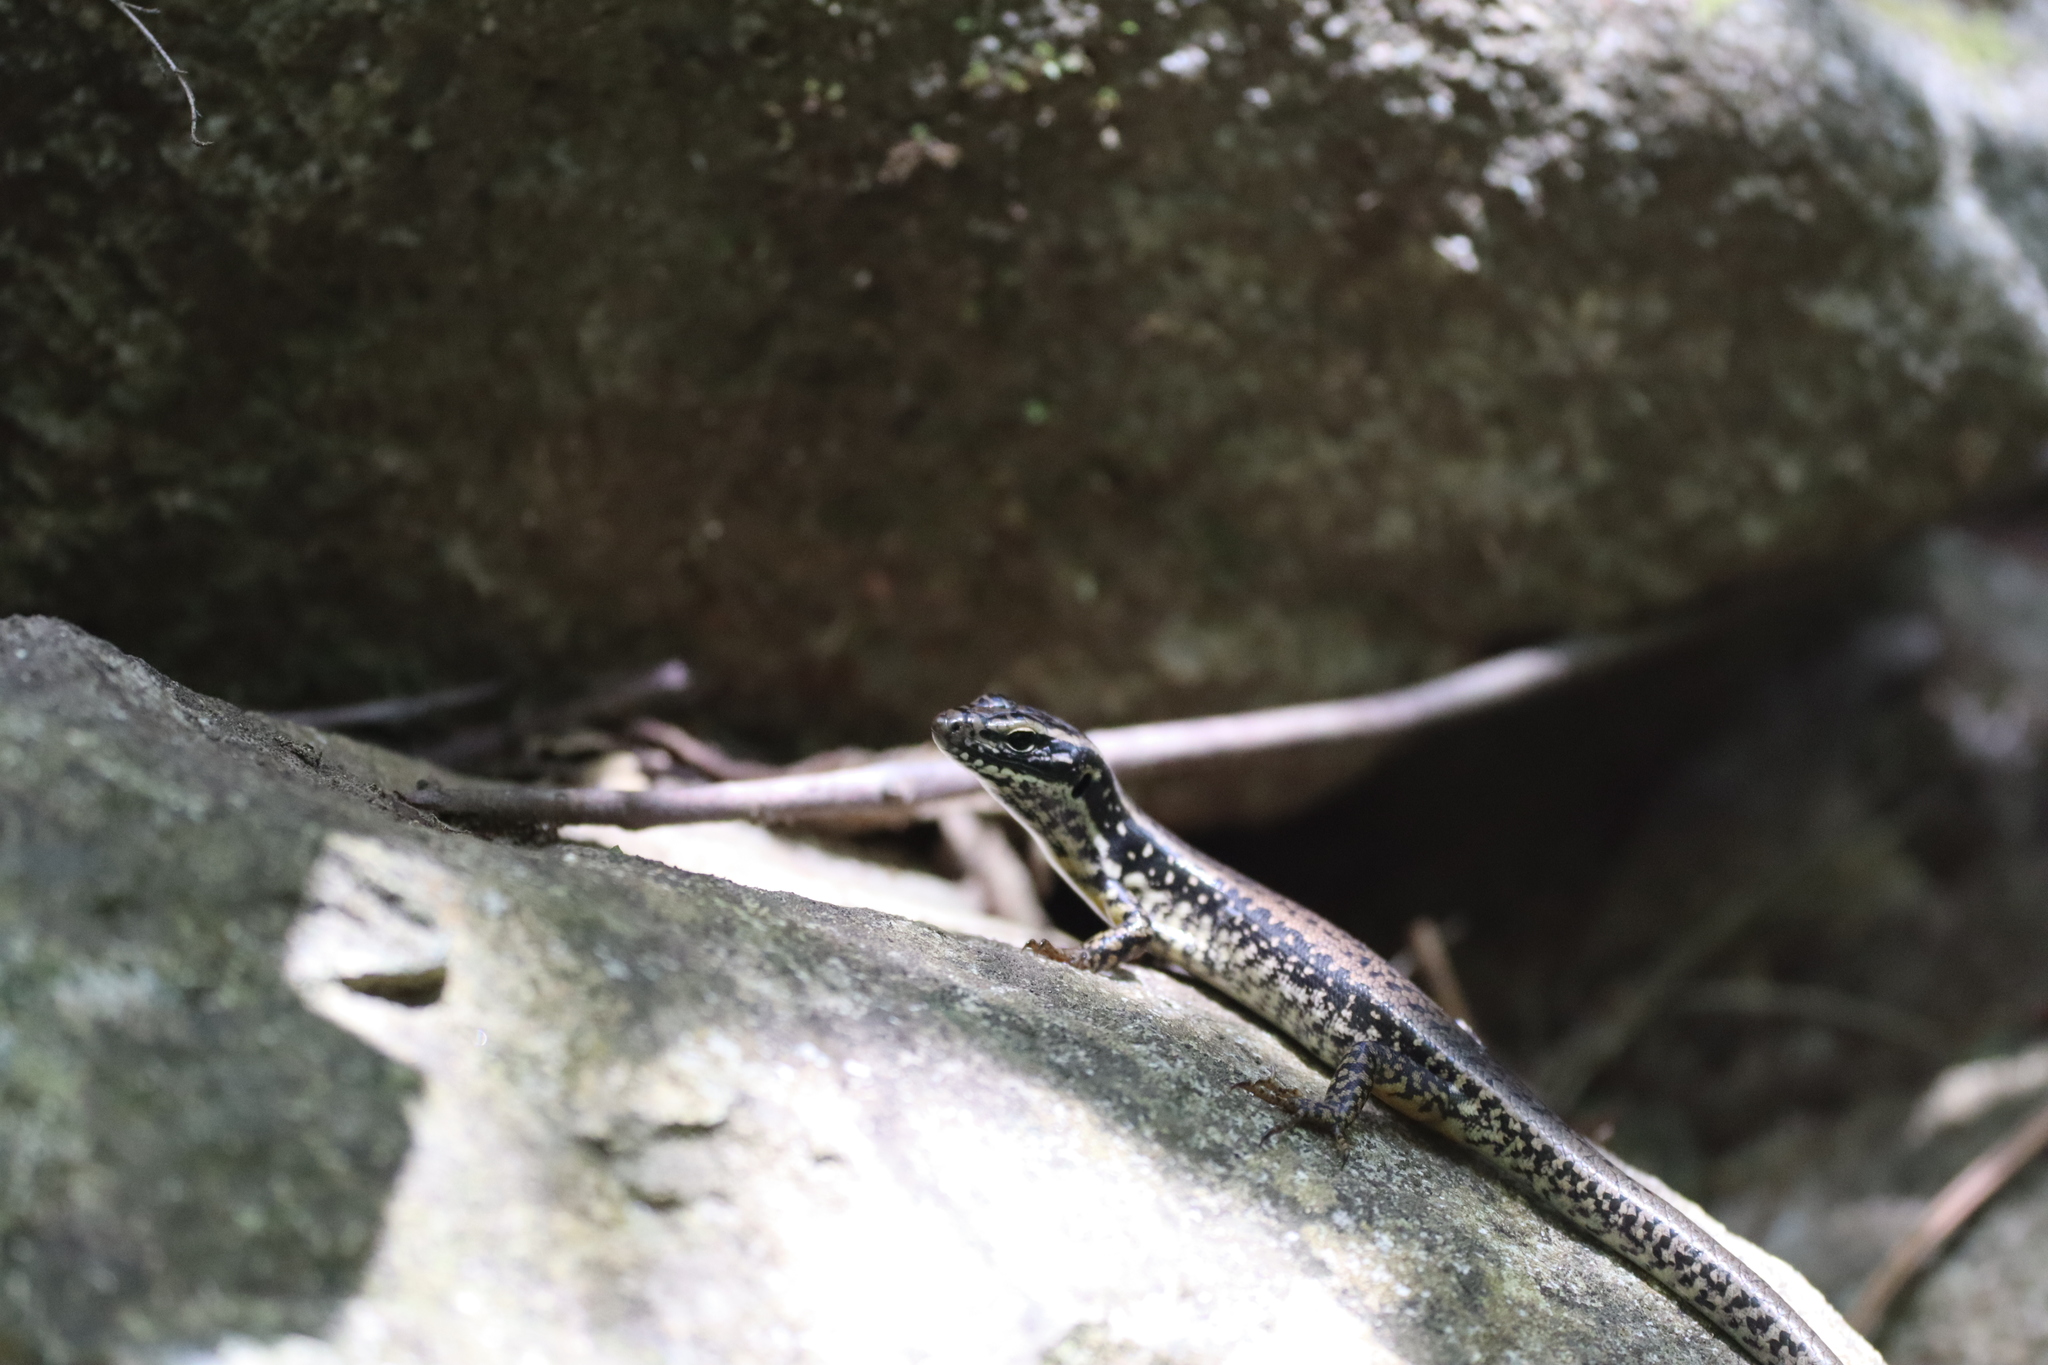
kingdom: Animalia
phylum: Chordata
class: Squamata
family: Scincidae
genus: Eulamprus
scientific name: Eulamprus heatwolei
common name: Warm-temperate water-skink
